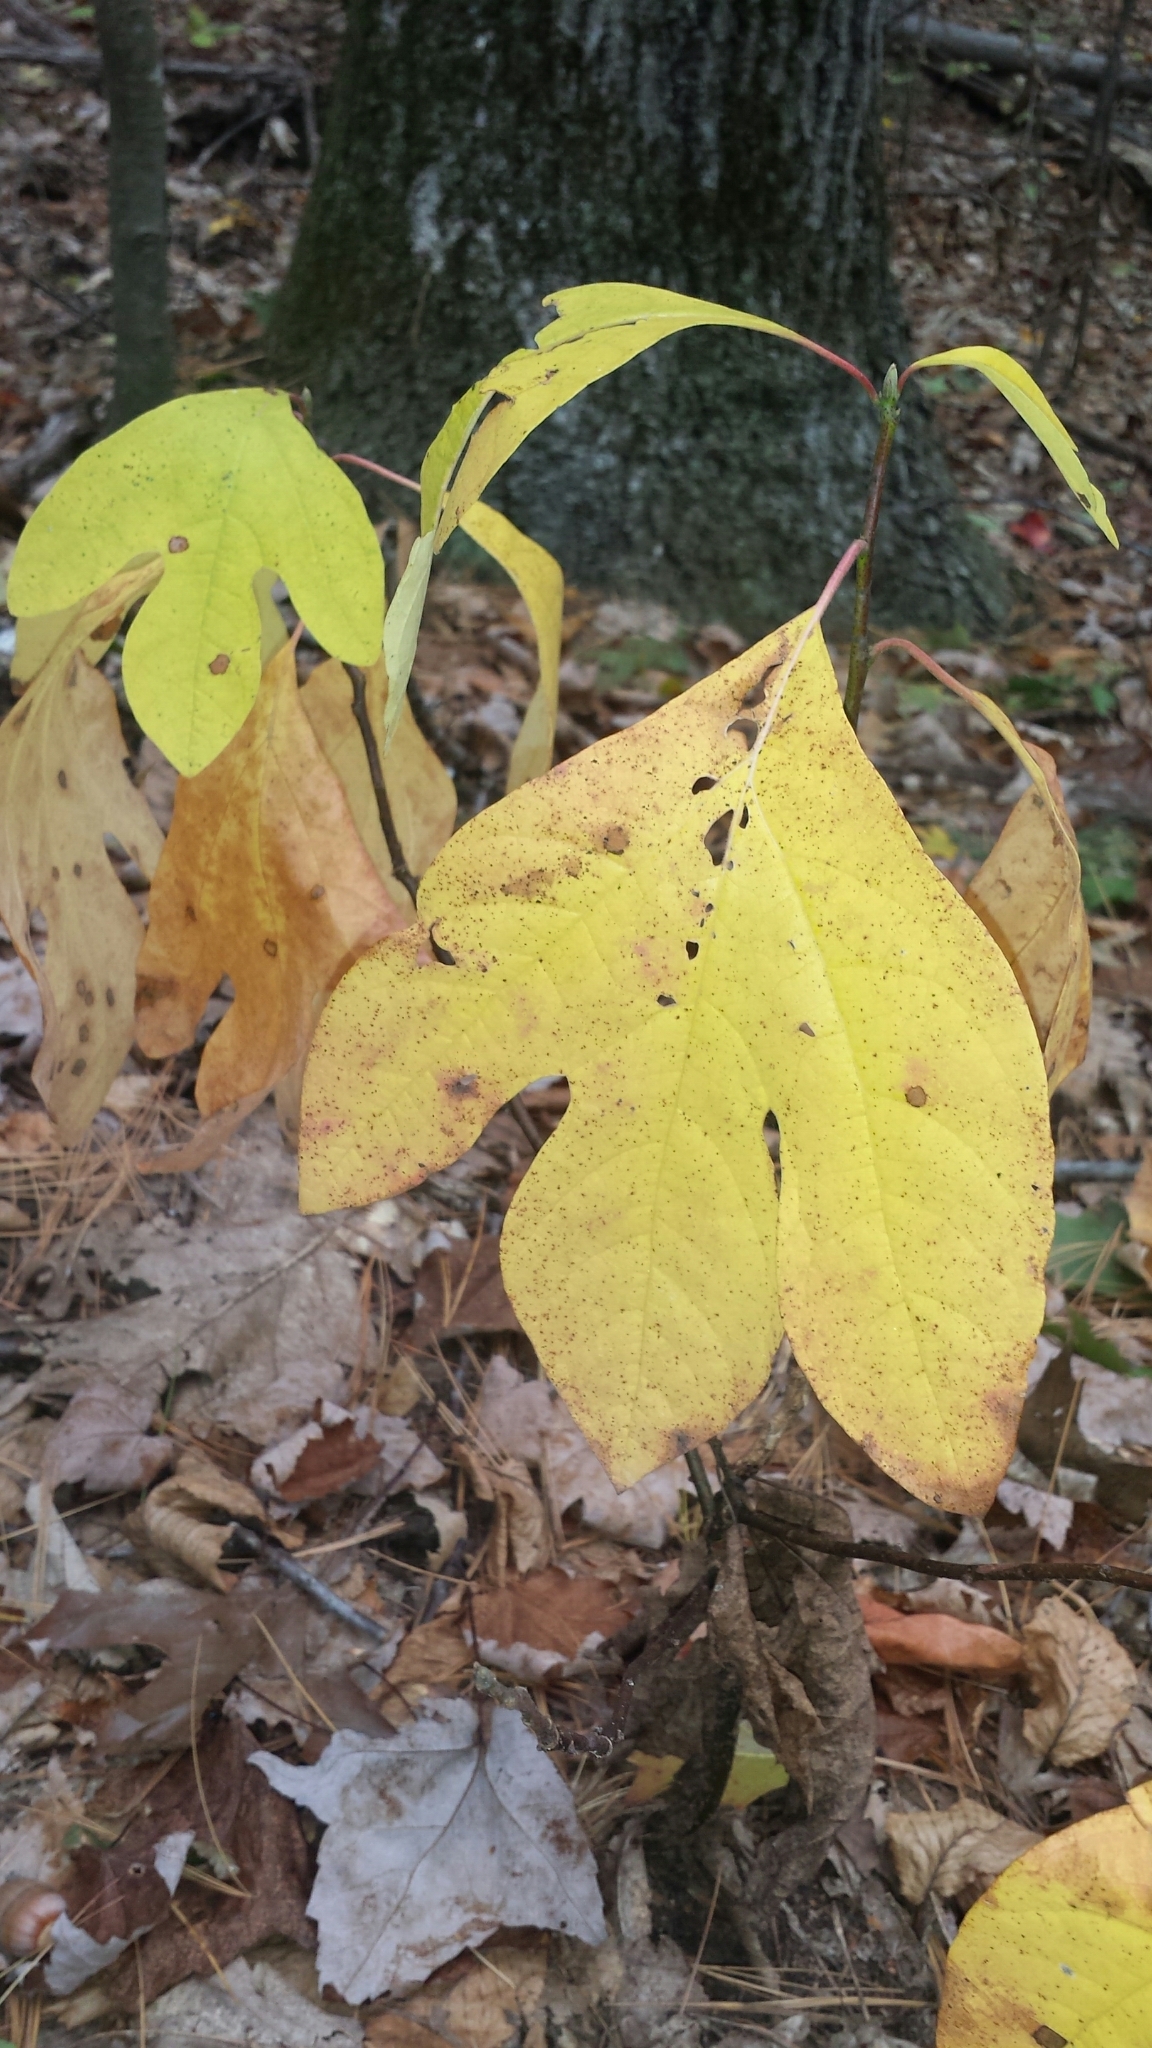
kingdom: Plantae
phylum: Tracheophyta
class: Magnoliopsida
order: Laurales
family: Lauraceae
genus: Sassafras
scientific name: Sassafras albidum
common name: Sassafras
